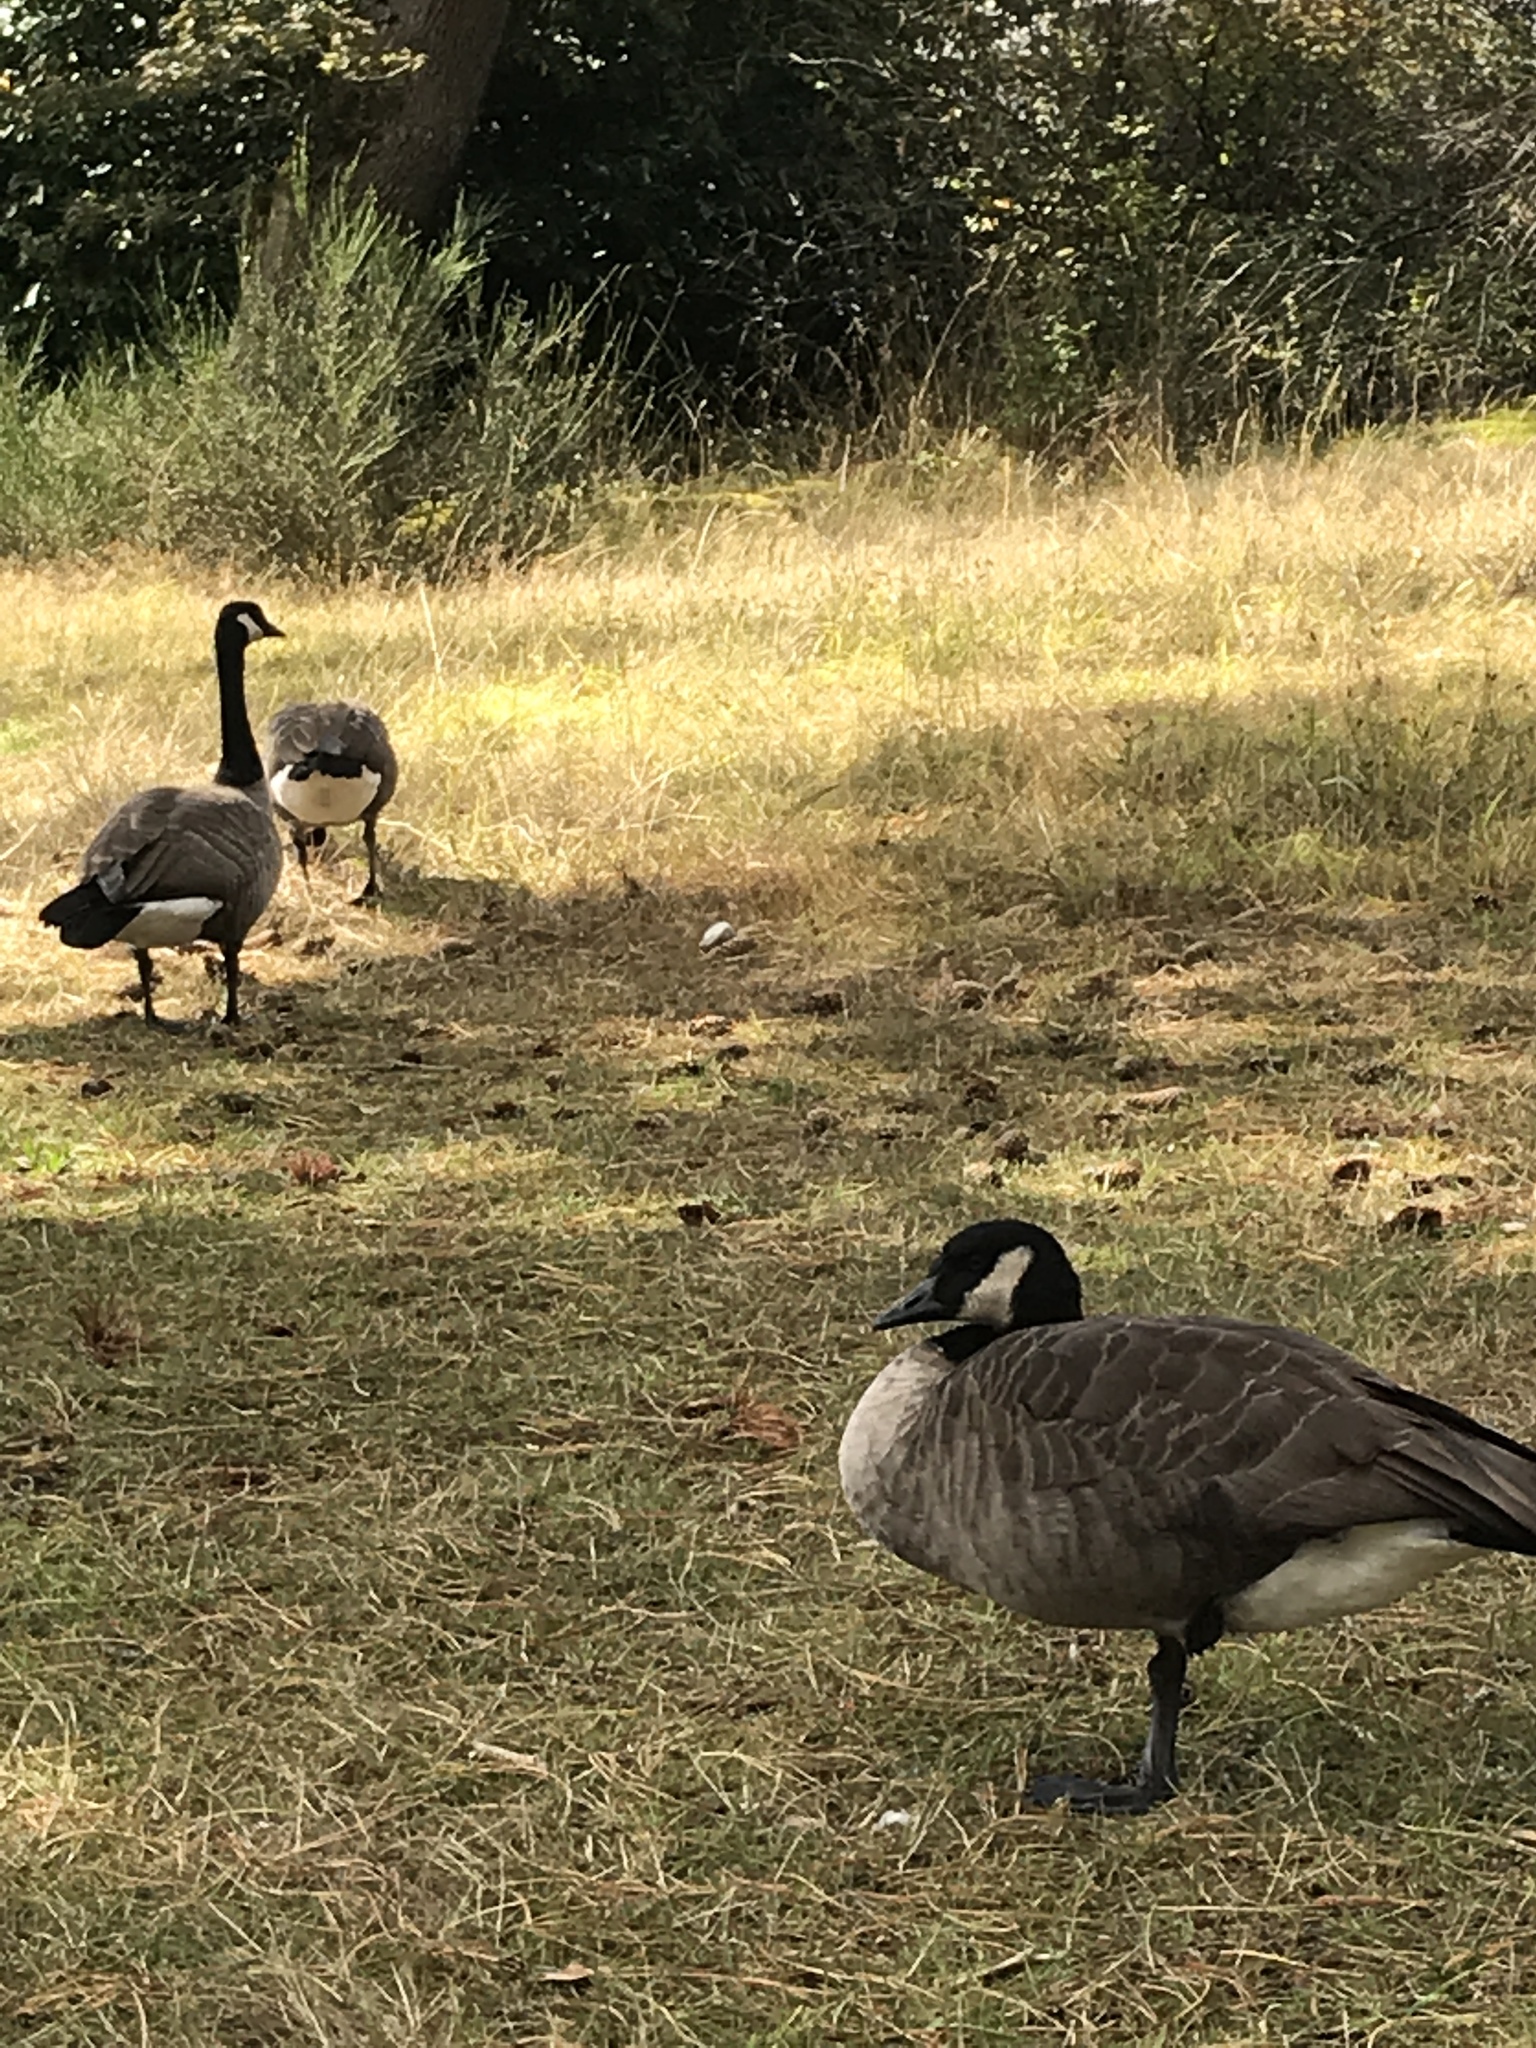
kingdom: Animalia
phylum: Chordata
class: Aves
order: Anseriformes
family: Anatidae
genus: Branta
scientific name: Branta canadensis
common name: Canada goose
